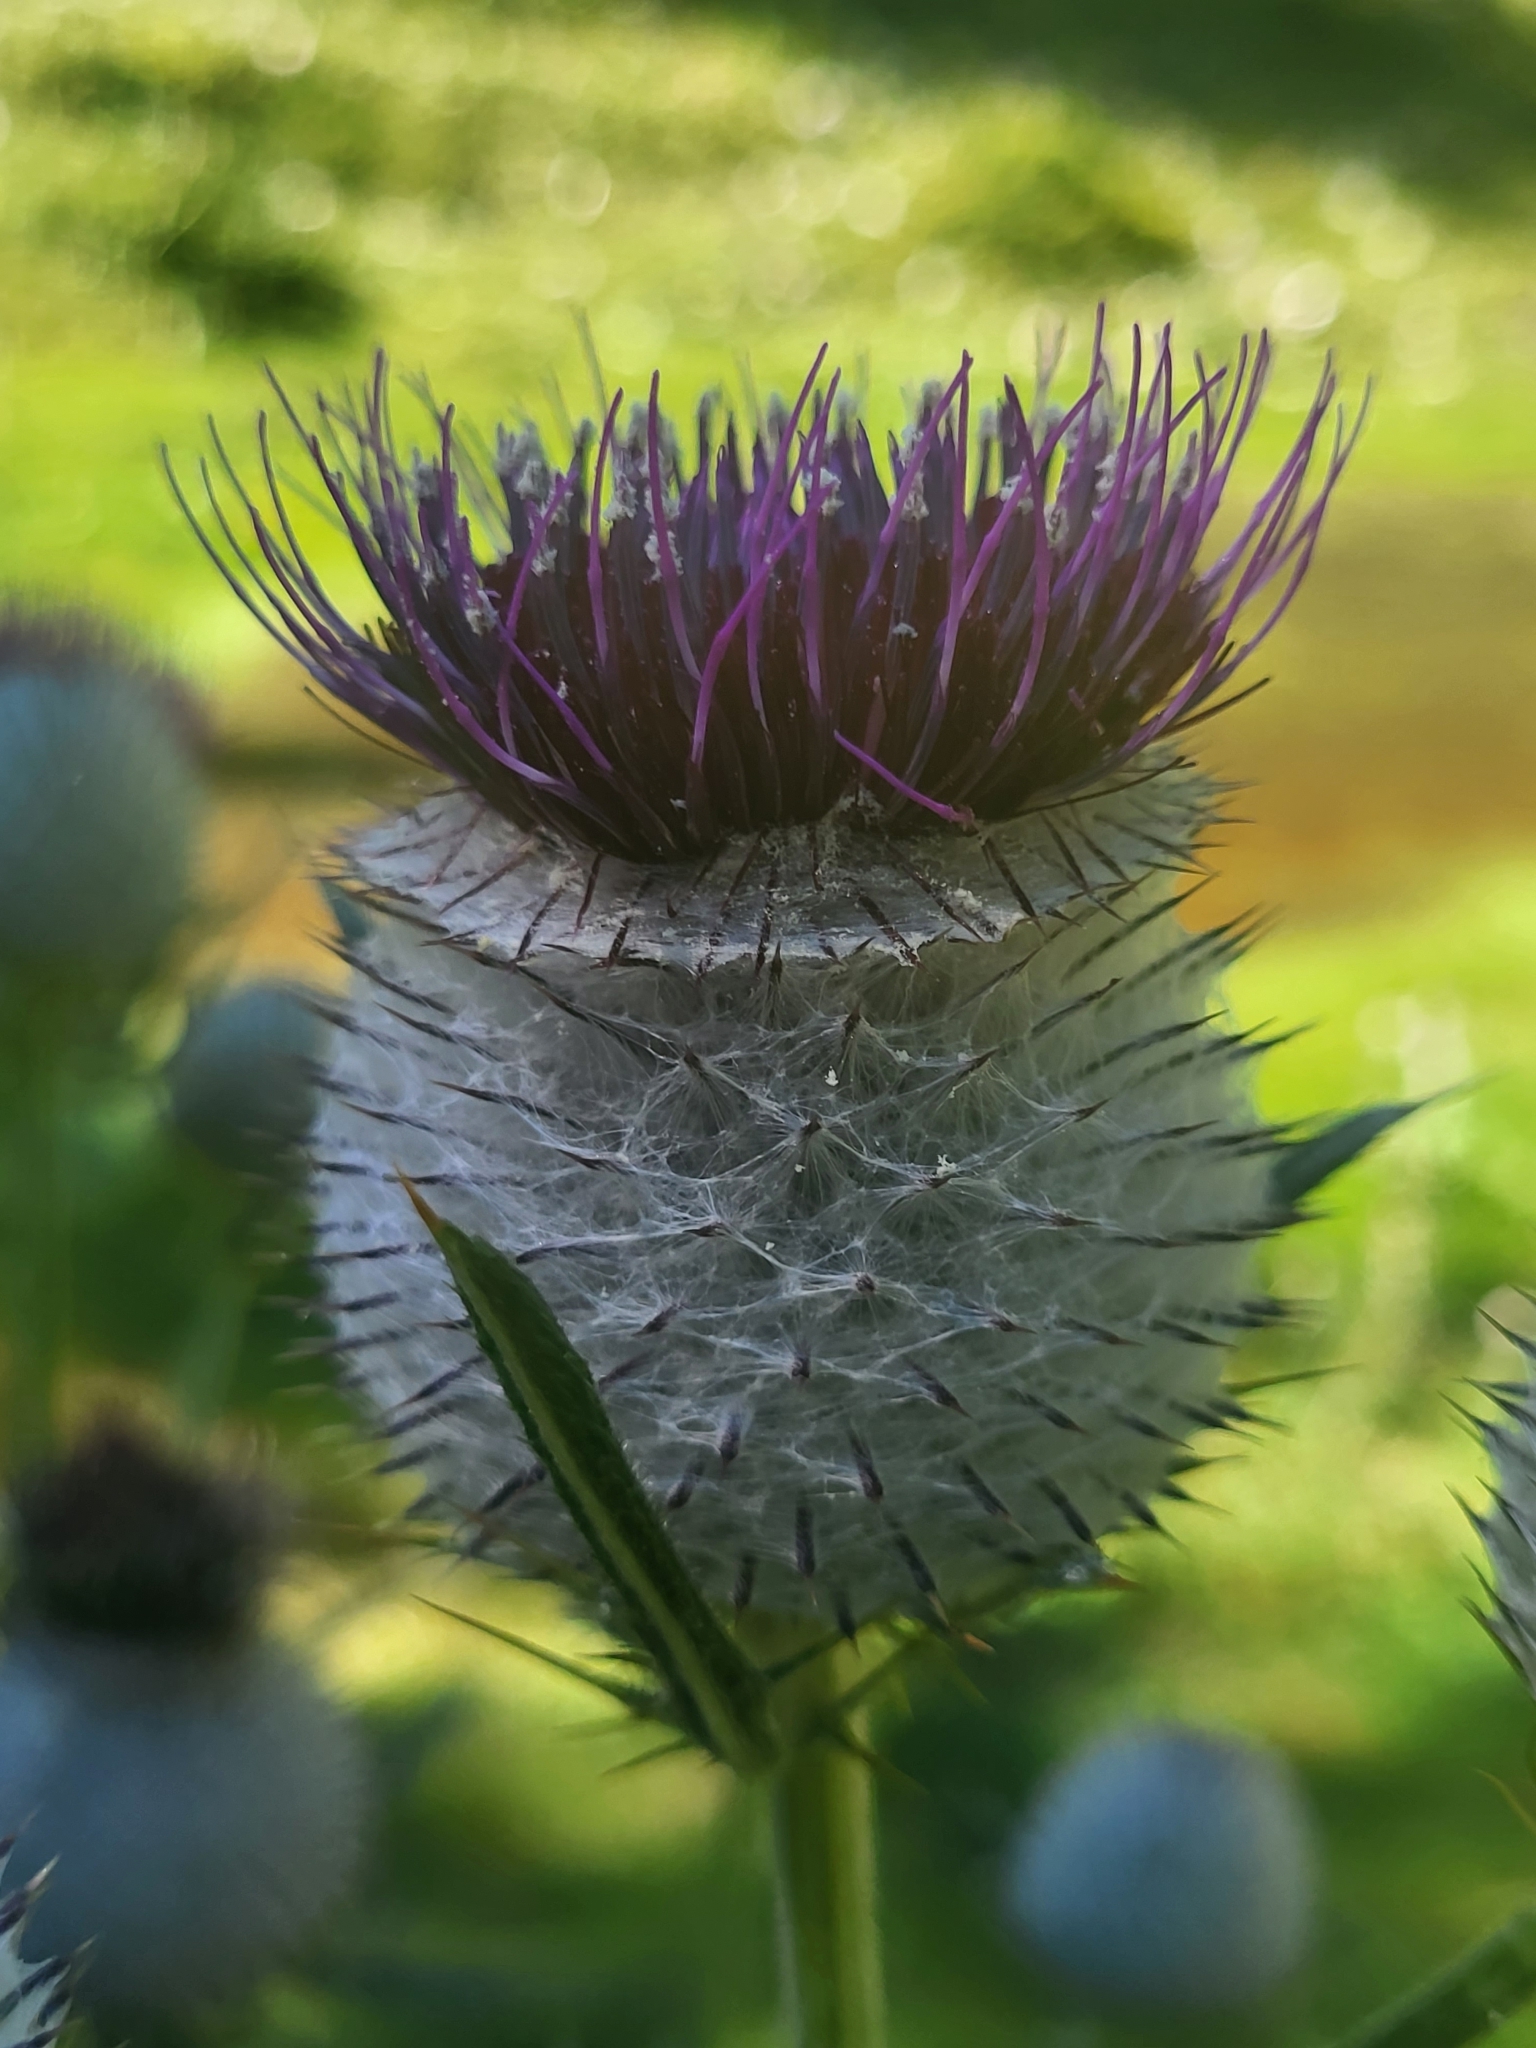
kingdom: Plantae
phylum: Tracheophyta
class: Magnoliopsida
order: Asterales
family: Asteraceae
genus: Lophiolepis
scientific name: Lophiolepis eriophora
